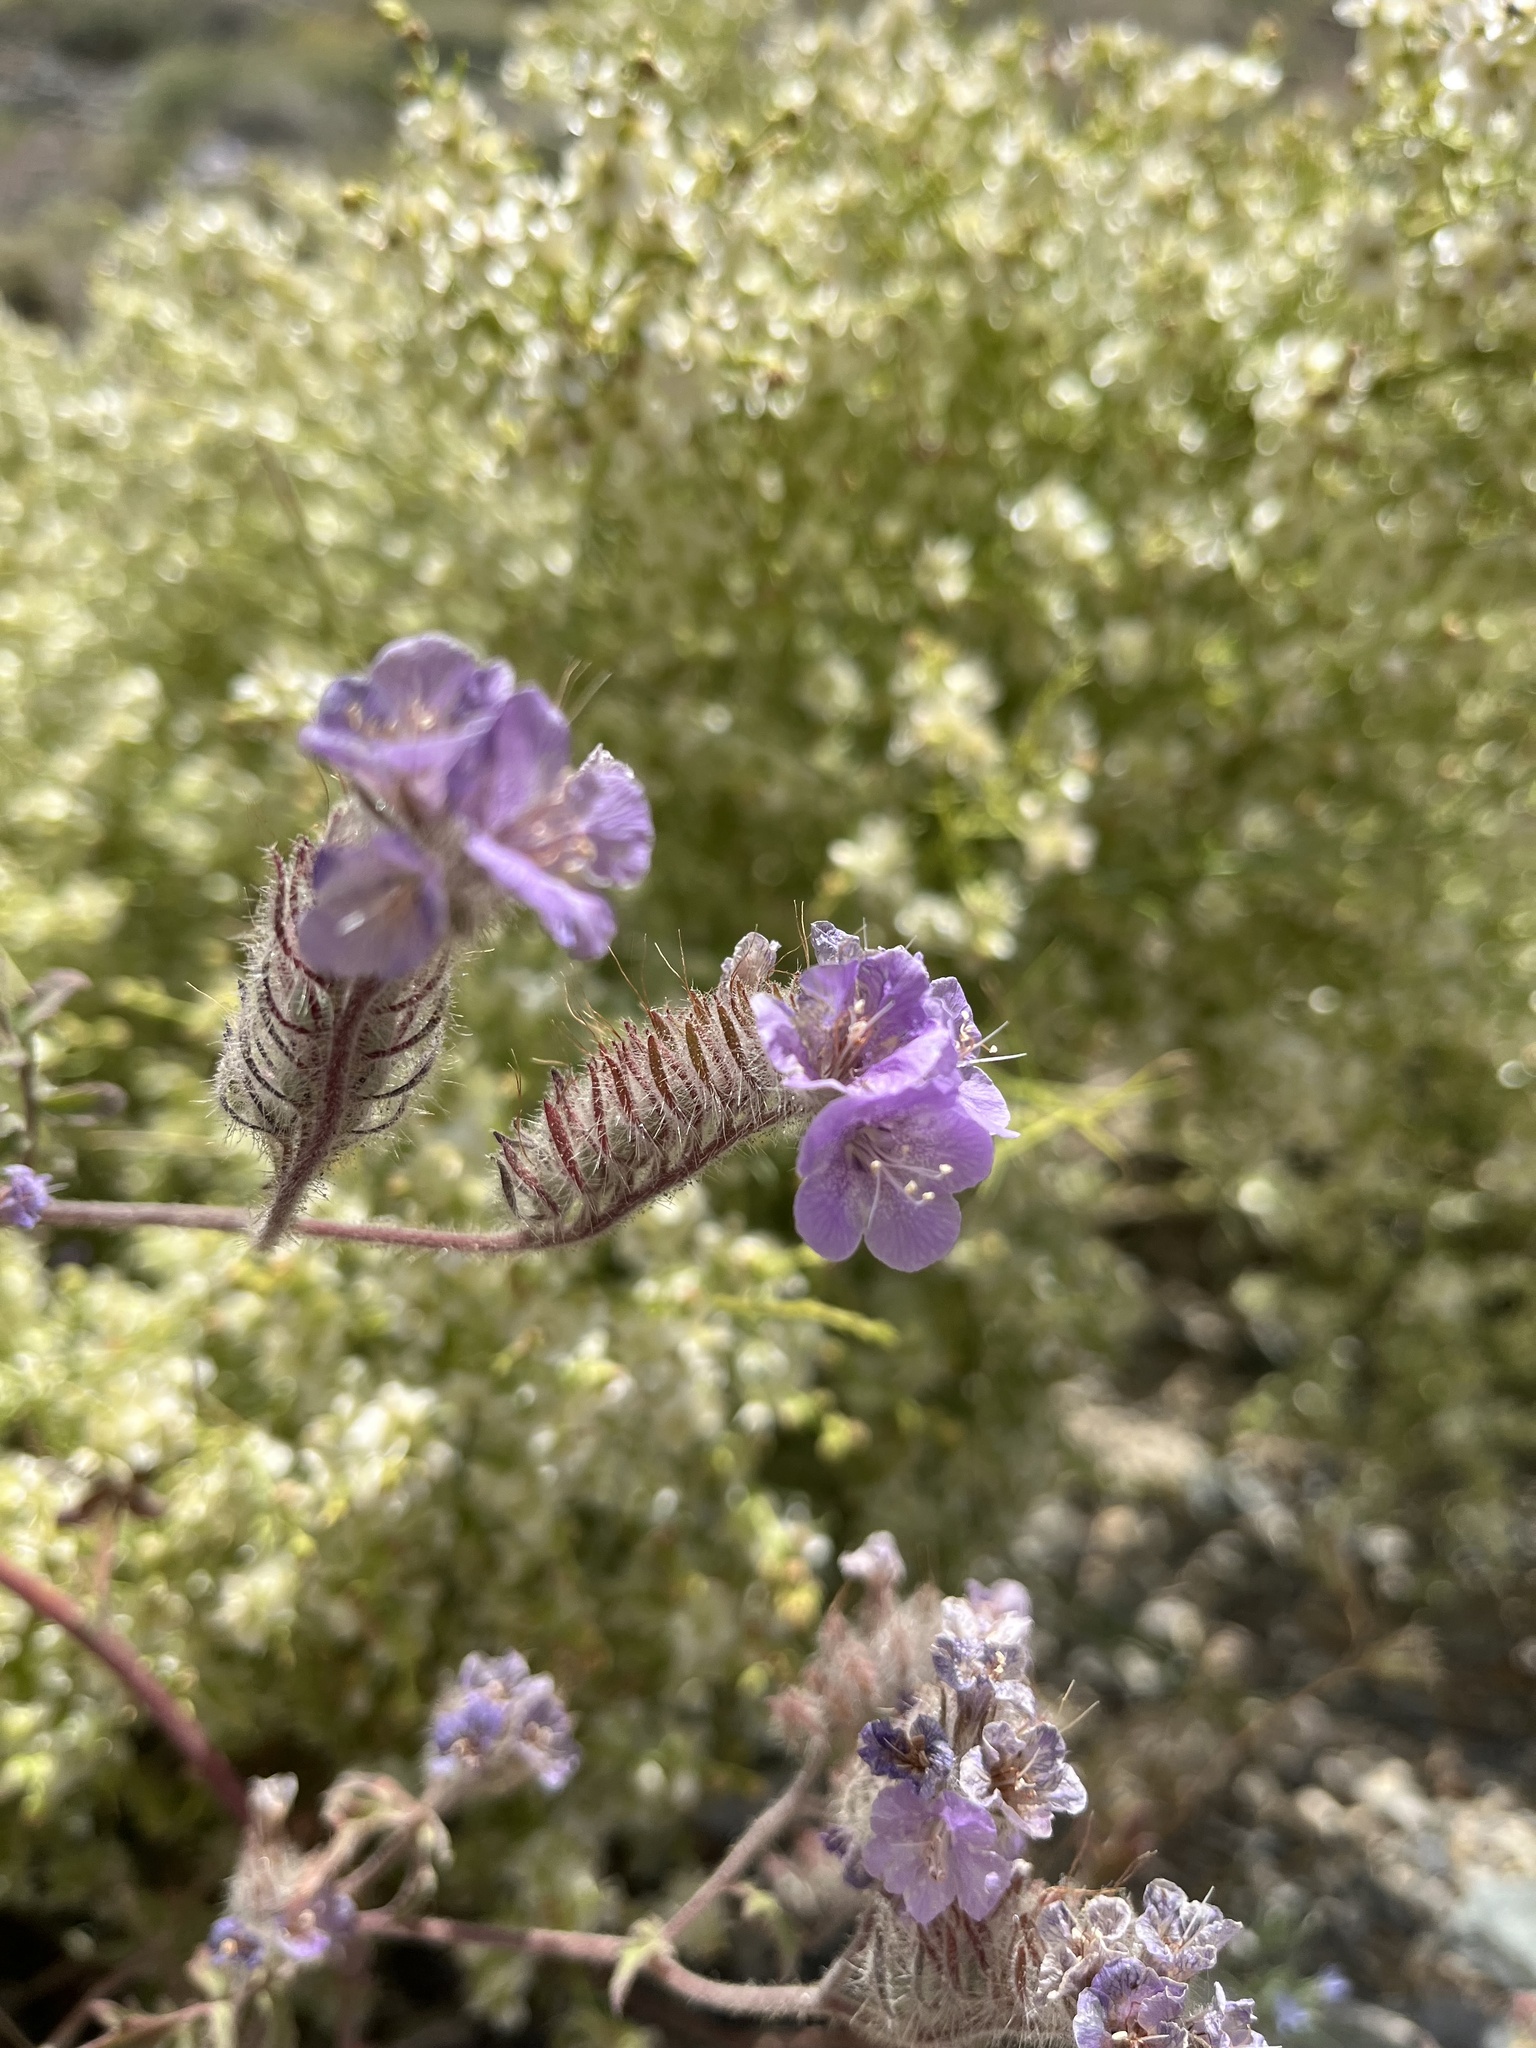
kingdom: Plantae
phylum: Tracheophyta
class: Magnoliopsida
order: Boraginales
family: Hydrophyllaceae
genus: Phacelia
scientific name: Phacelia vallis-mortae
